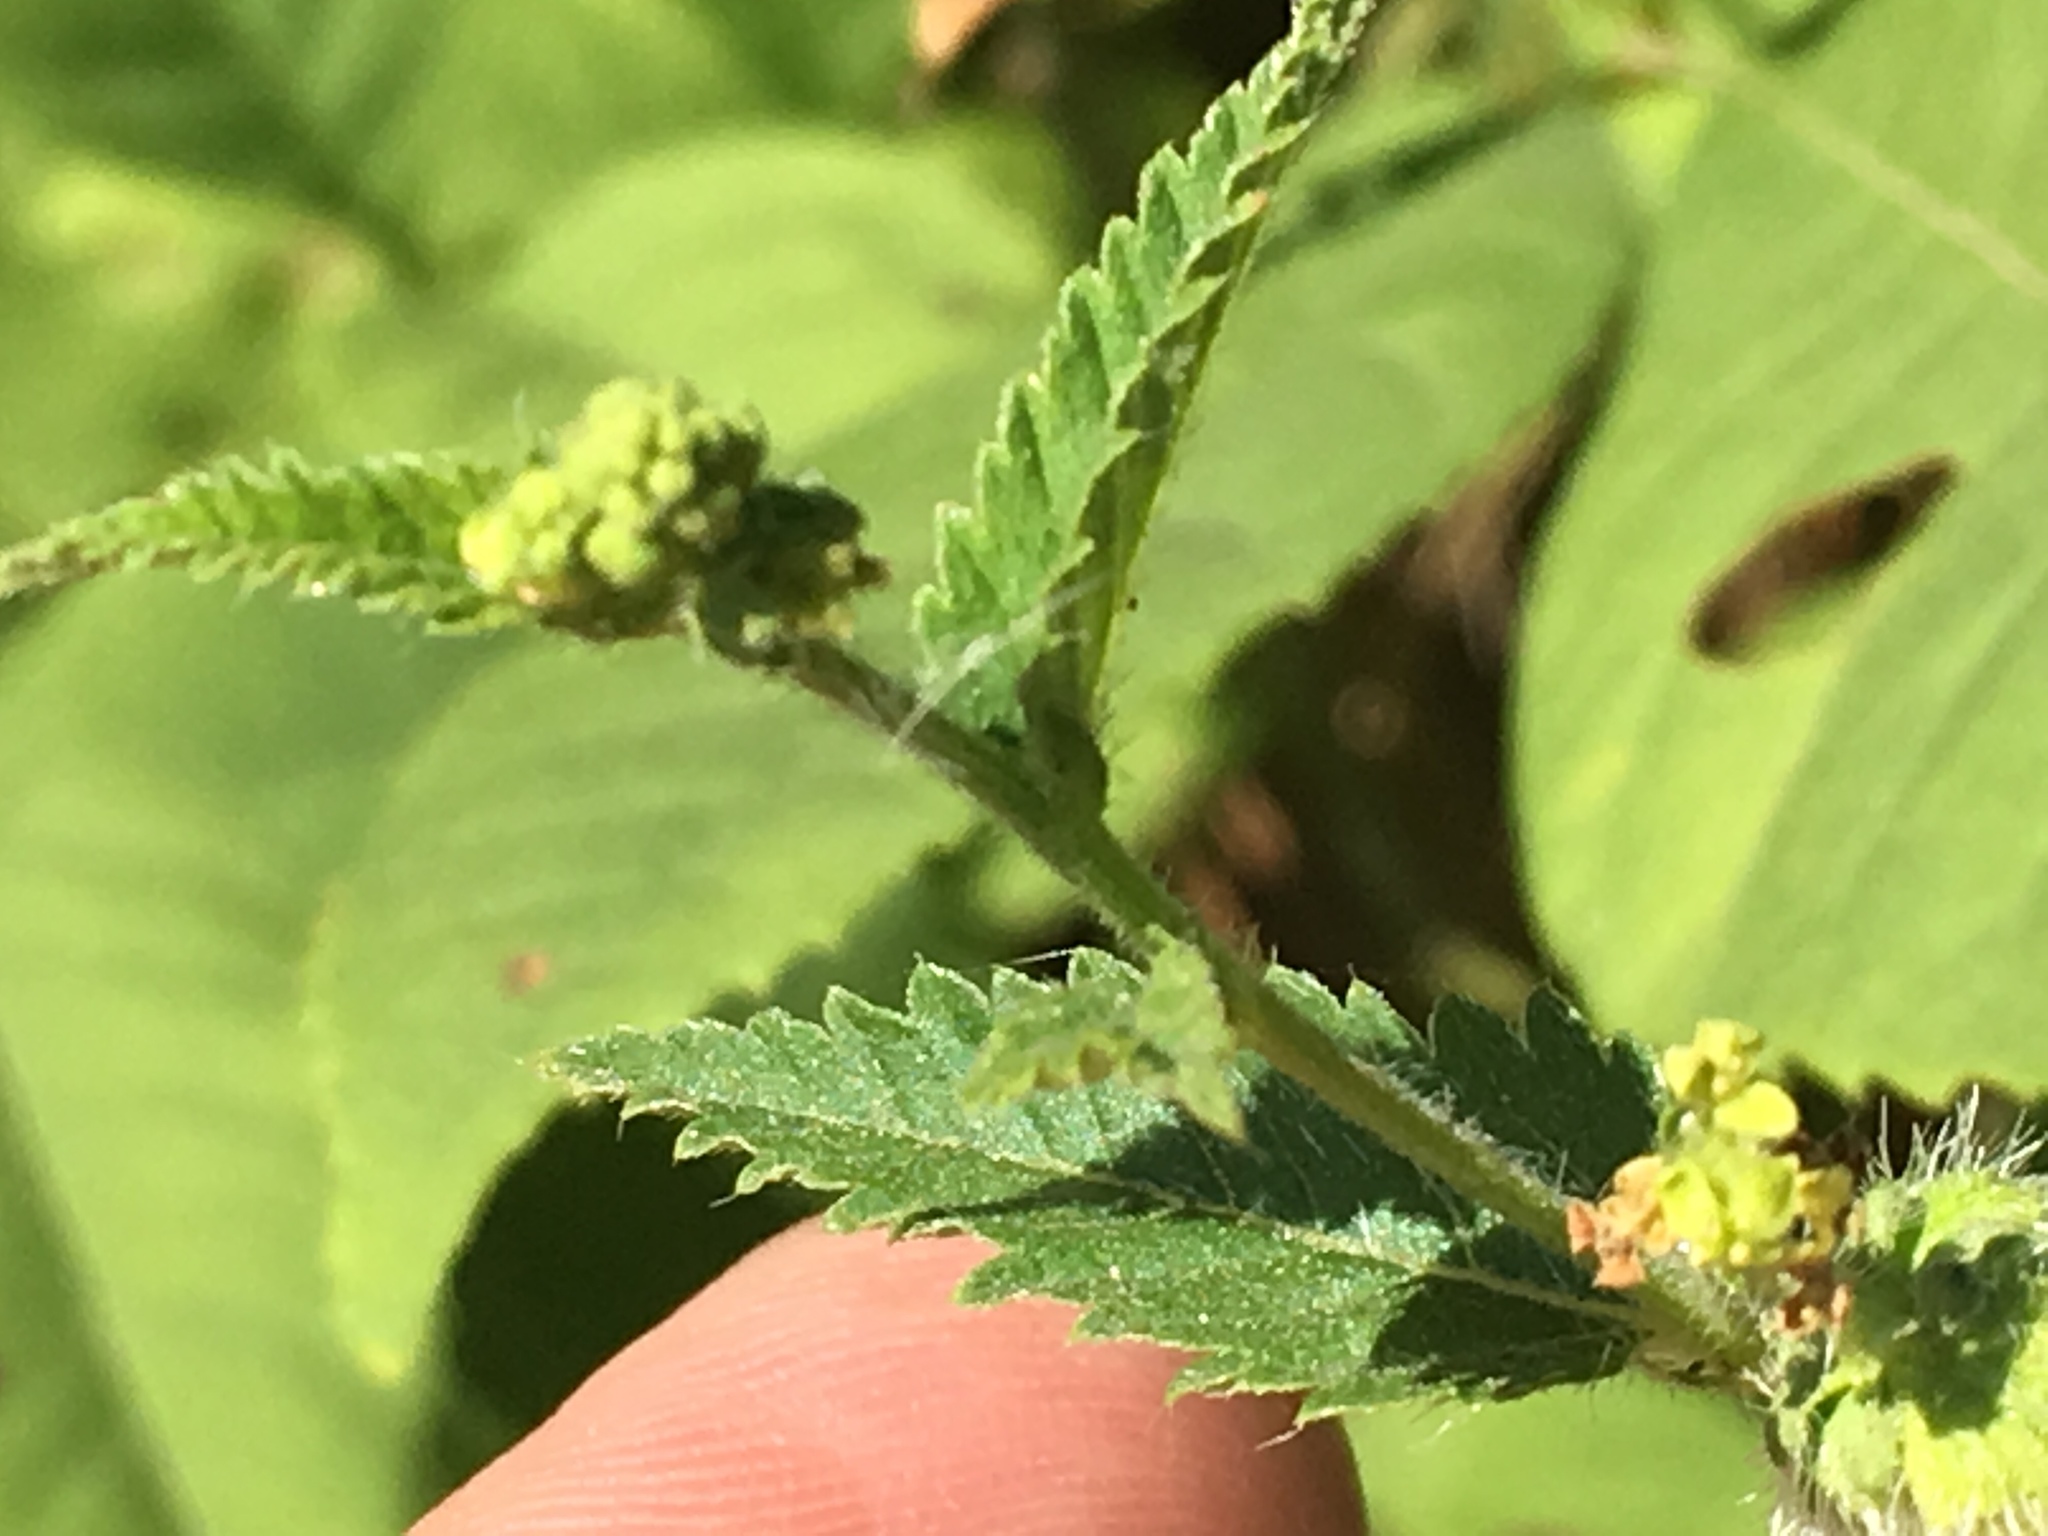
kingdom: Plantae
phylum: Tracheophyta
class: Magnoliopsida
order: Malpighiales
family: Euphorbiaceae
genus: Tragia
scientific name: Tragia urticifolia
